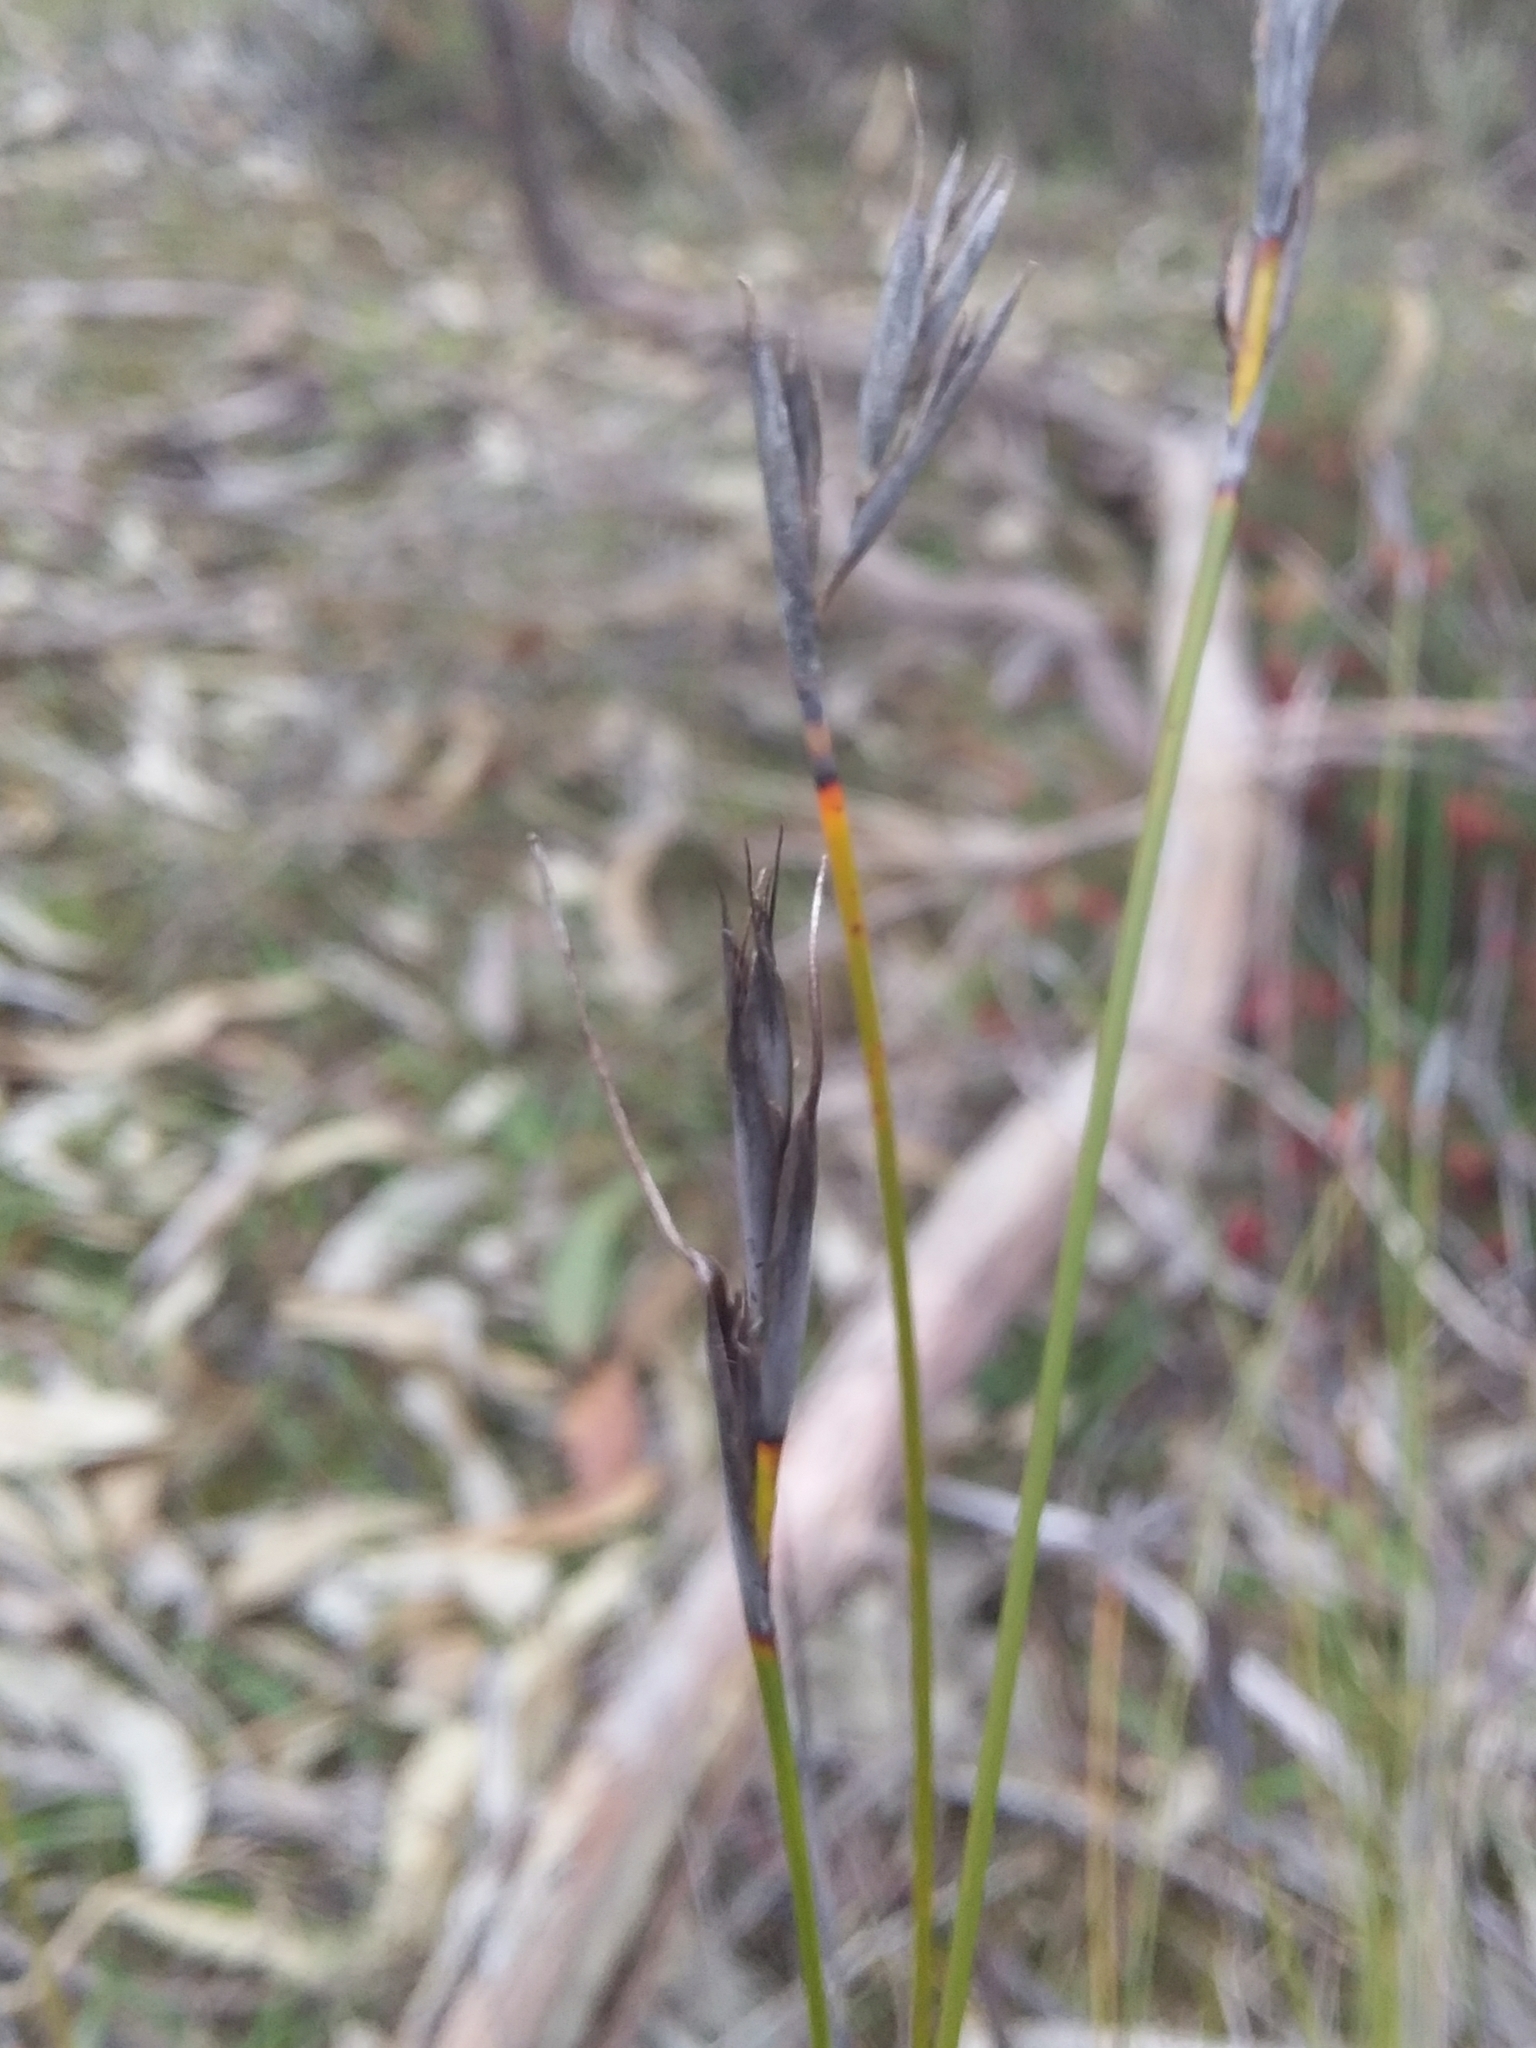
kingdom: Plantae
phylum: Tracheophyta
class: Liliopsida
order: Poales
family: Cyperaceae
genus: Lepidosperma
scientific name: Lepidosperma carphoides
